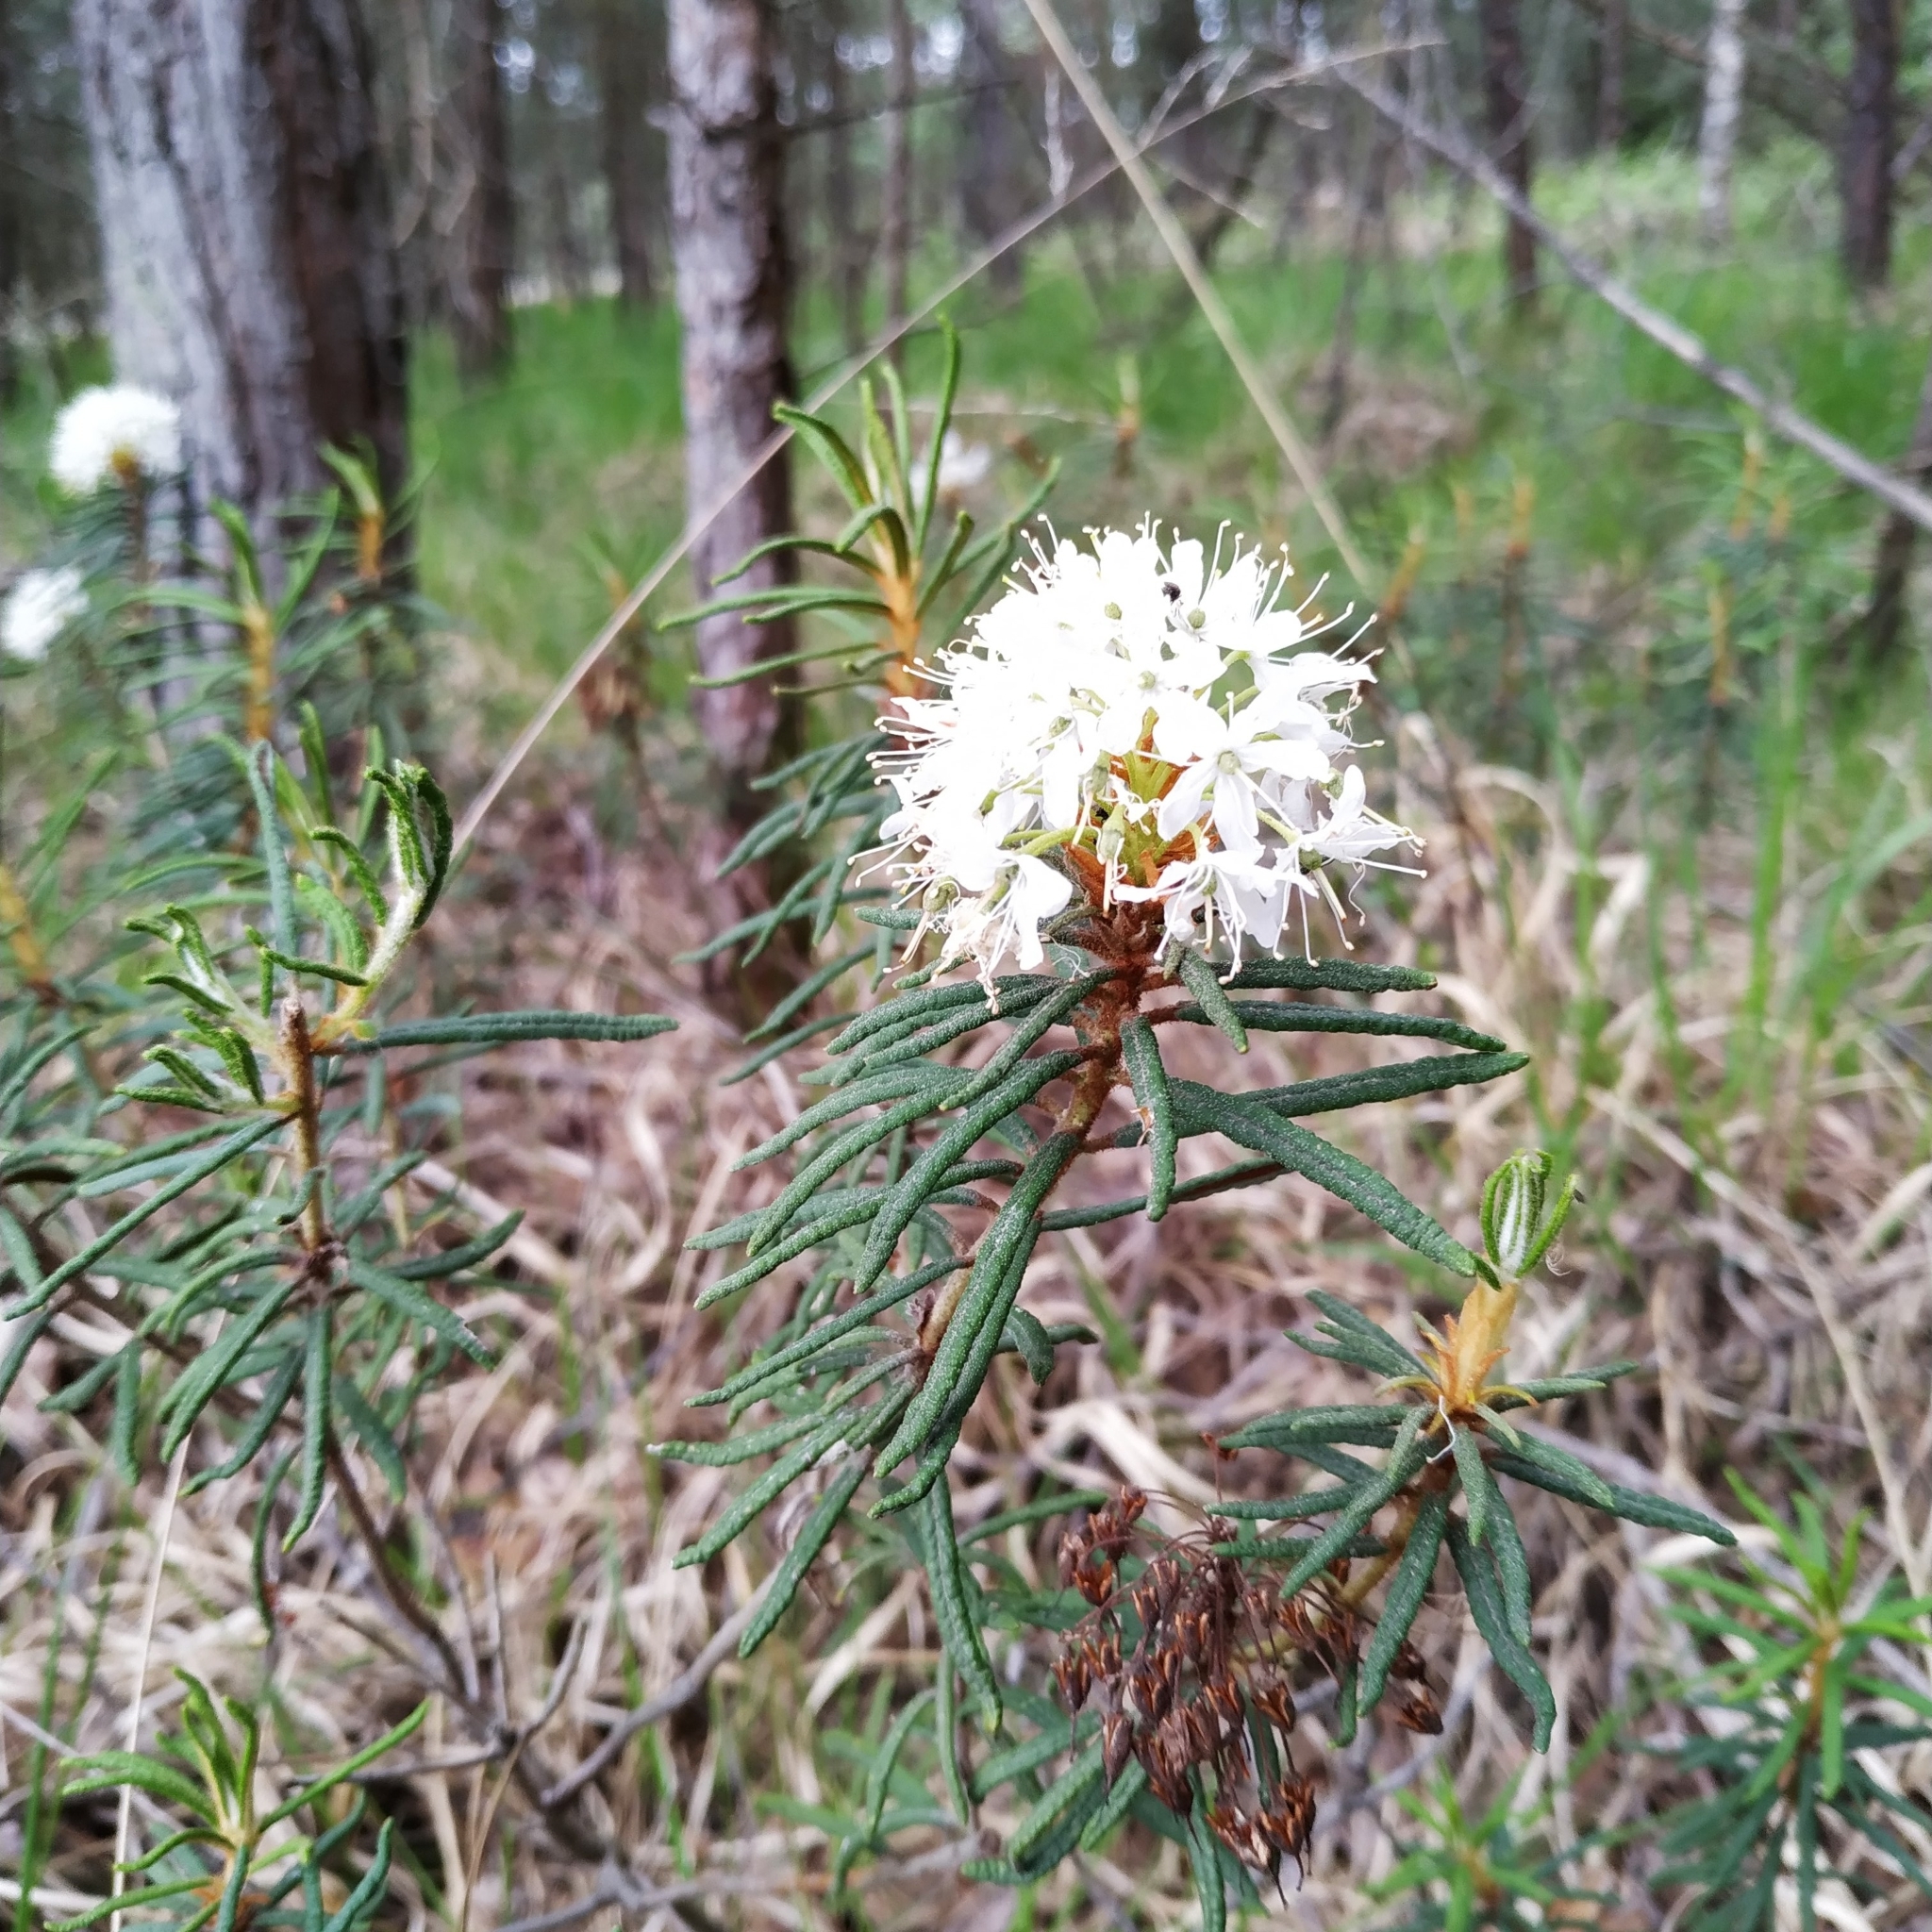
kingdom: Plantae
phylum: Tracheophyta
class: Magnoliopsida
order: Ericales
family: Ericaceae
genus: Rhododendron
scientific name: Rhododendron tomentosum
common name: Marsh labrador tea
